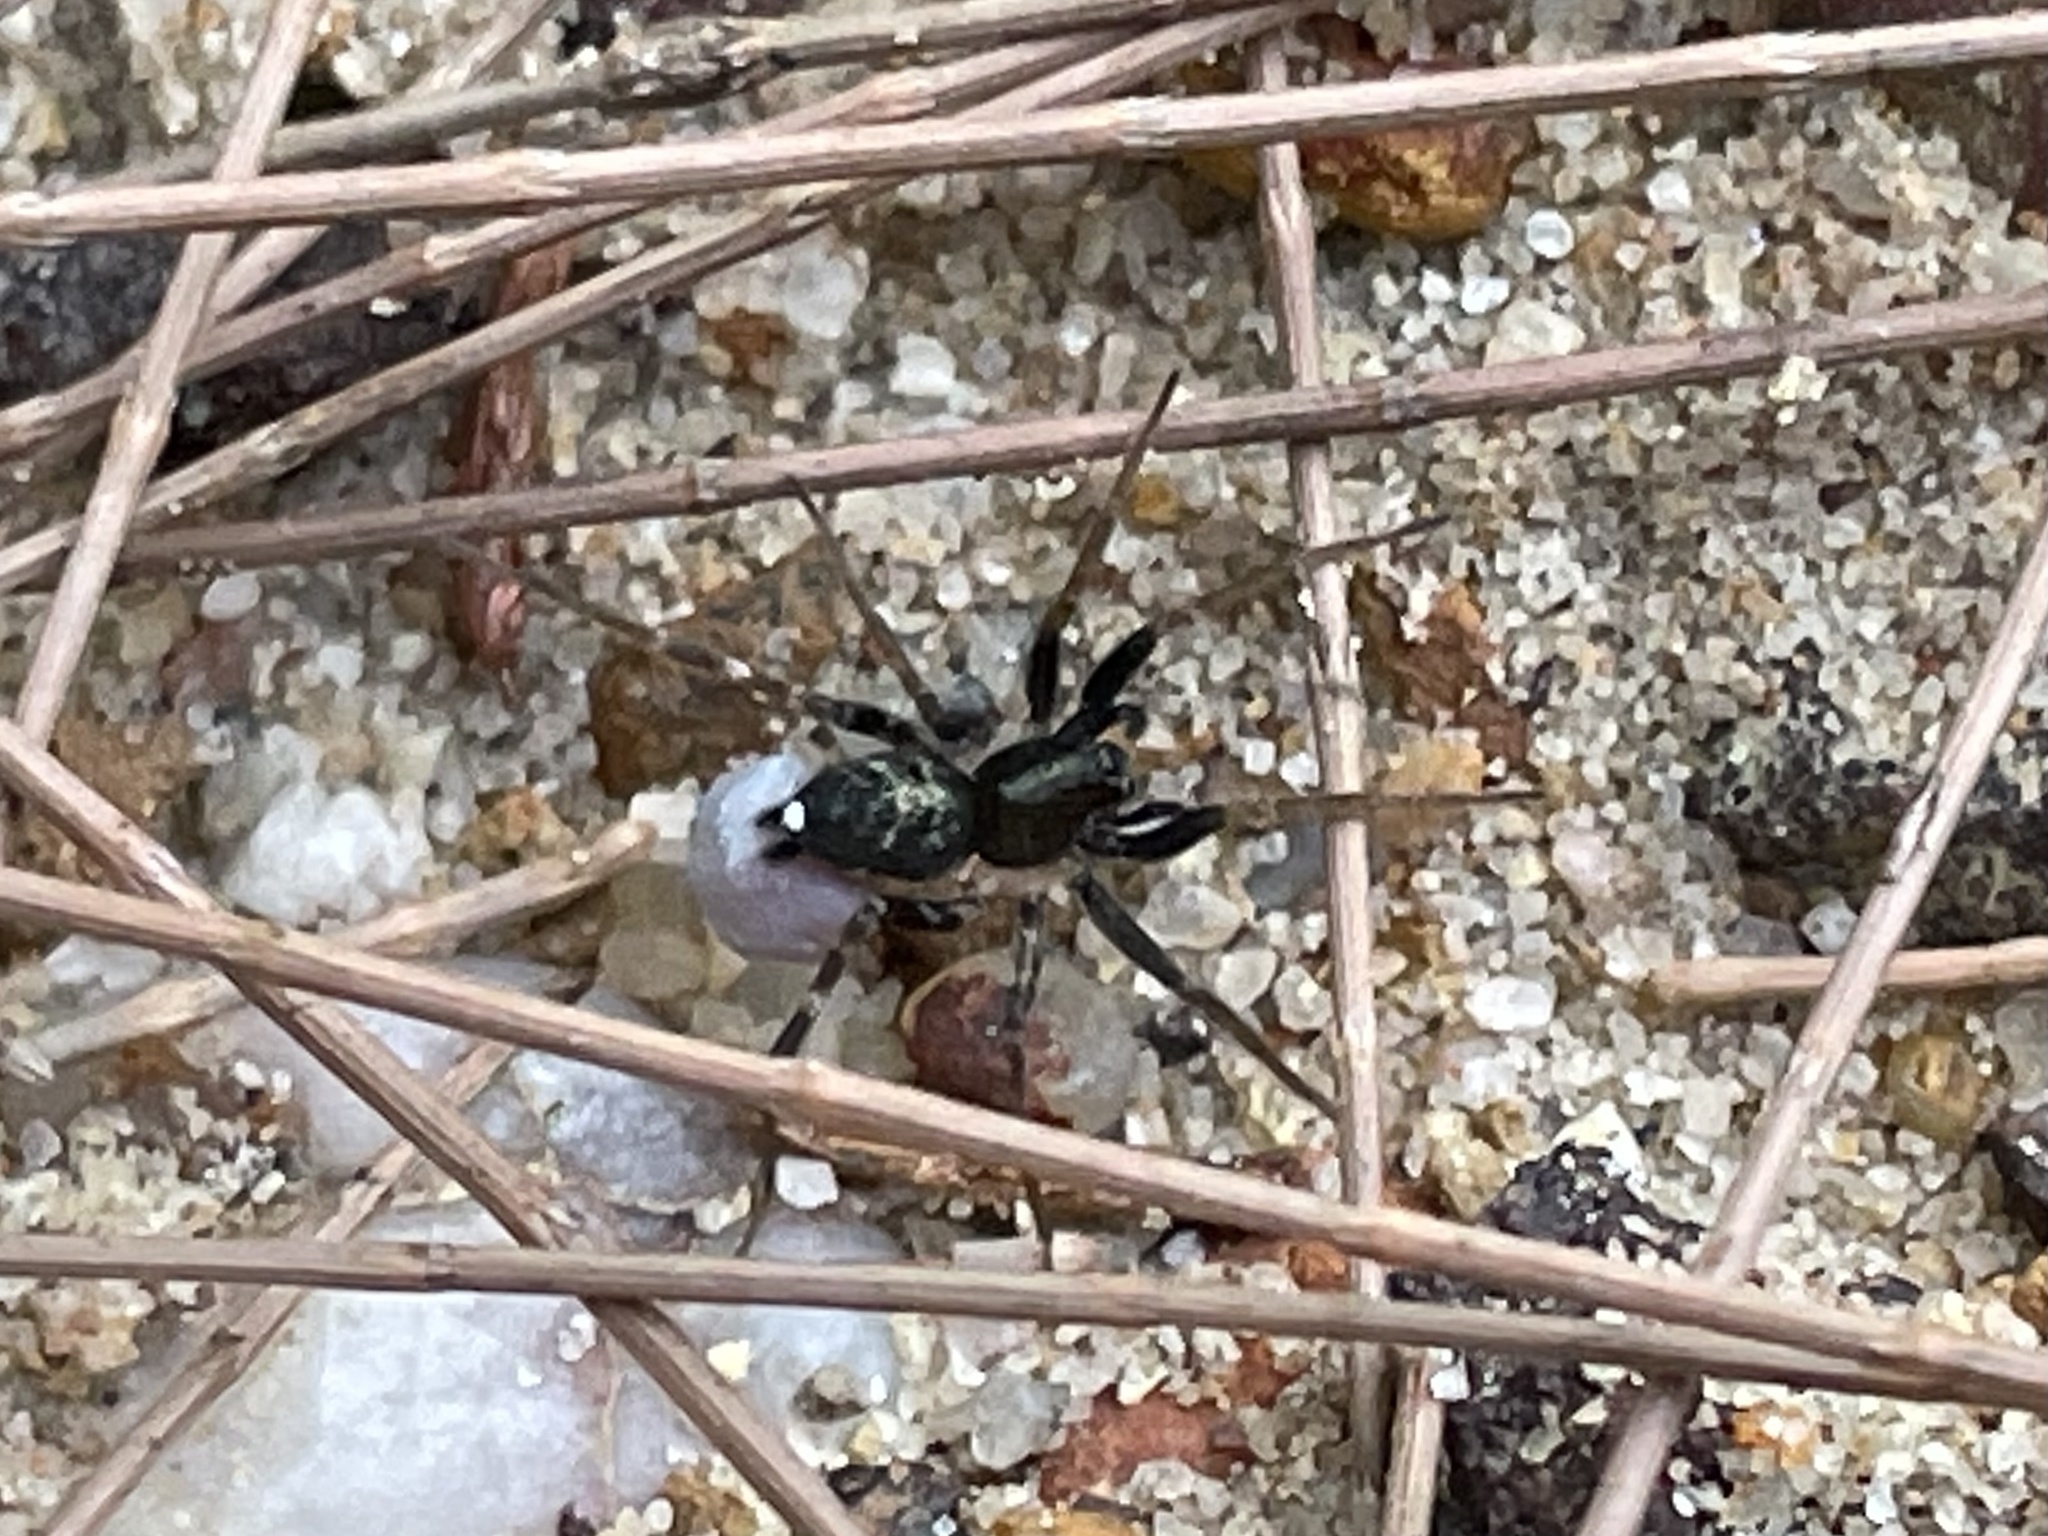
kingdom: Animalia
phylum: Arthropoda
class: Arachnida
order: Araneae
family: Lycosidae
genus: Venonia
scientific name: Venonia micarioides
